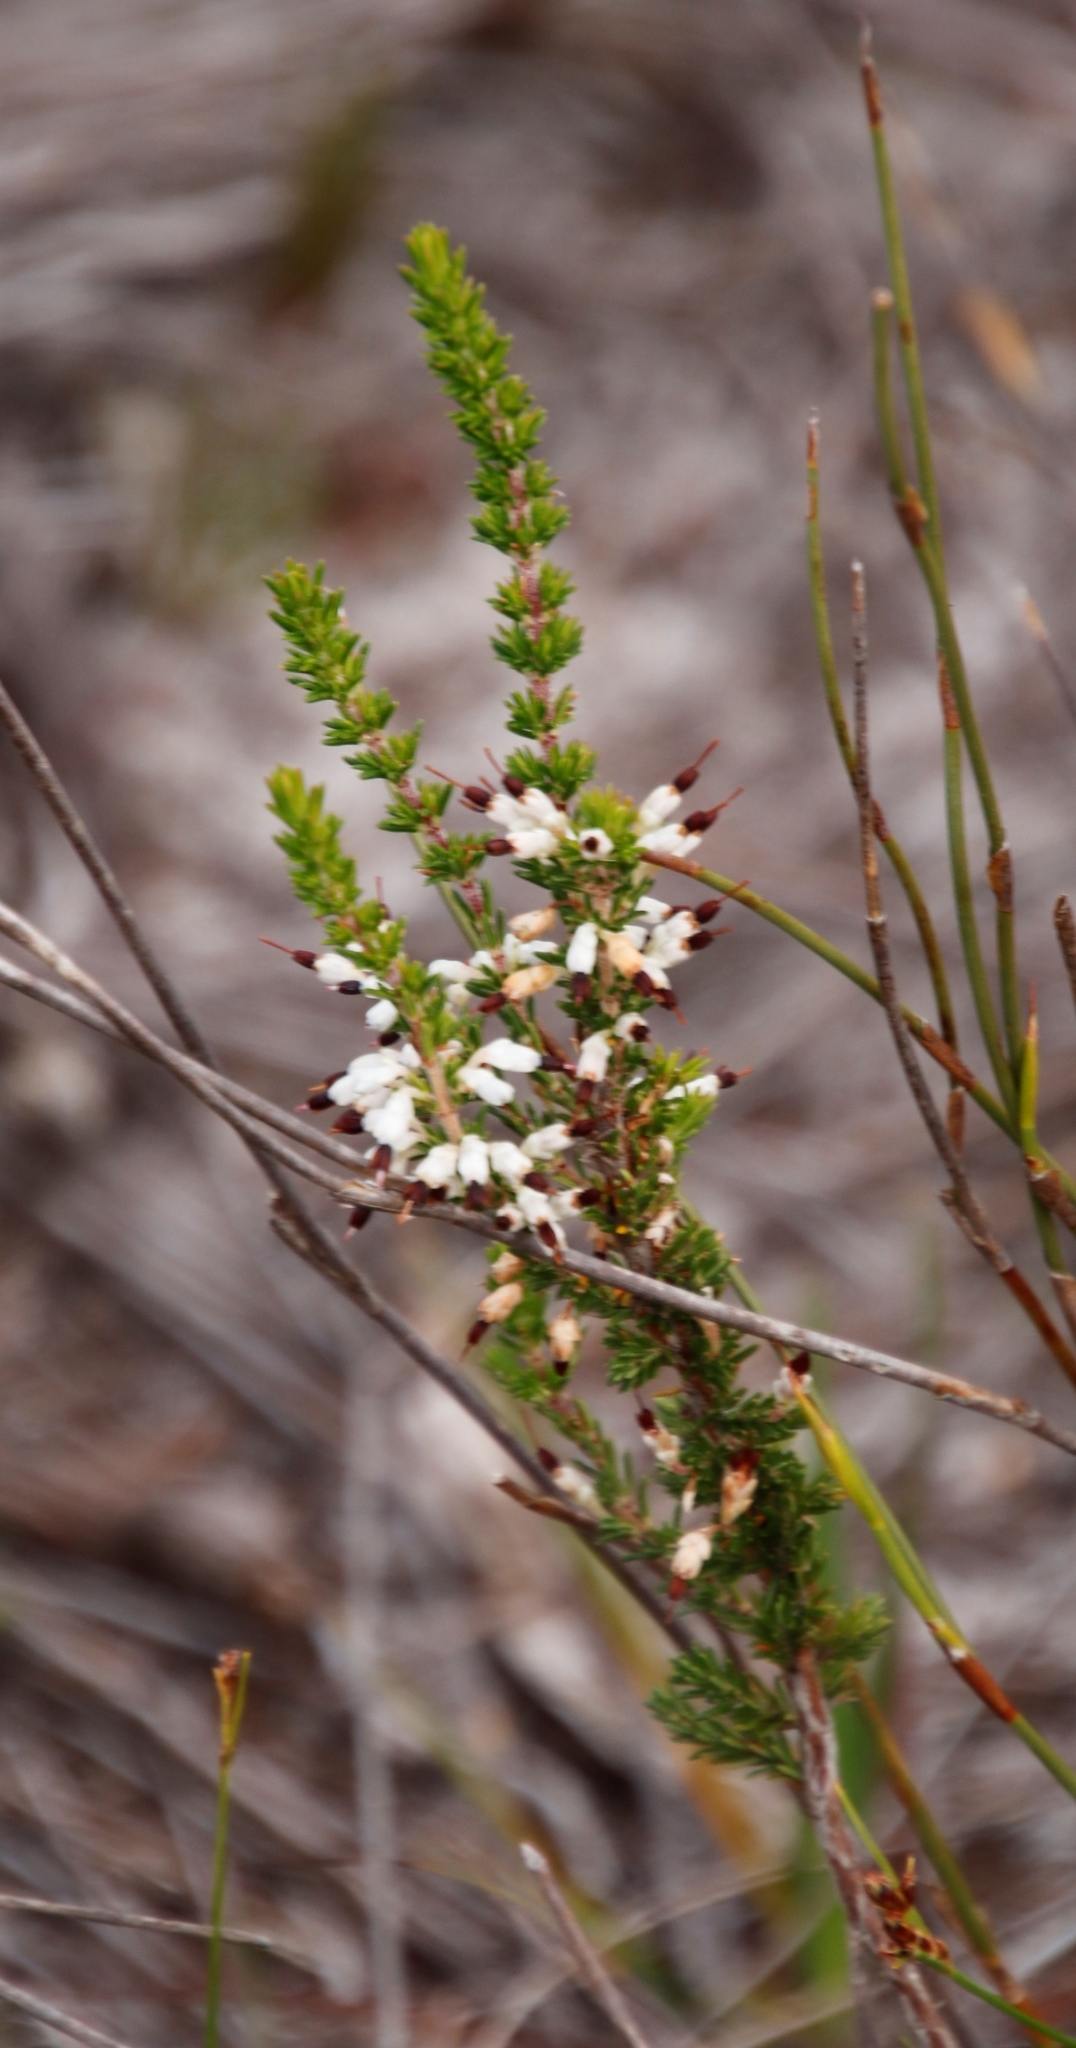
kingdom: Plantae
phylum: Tracheophyta
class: Magnoliopsida
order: Ericales
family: Ericaceae
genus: Erica
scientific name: Erica imbricata
